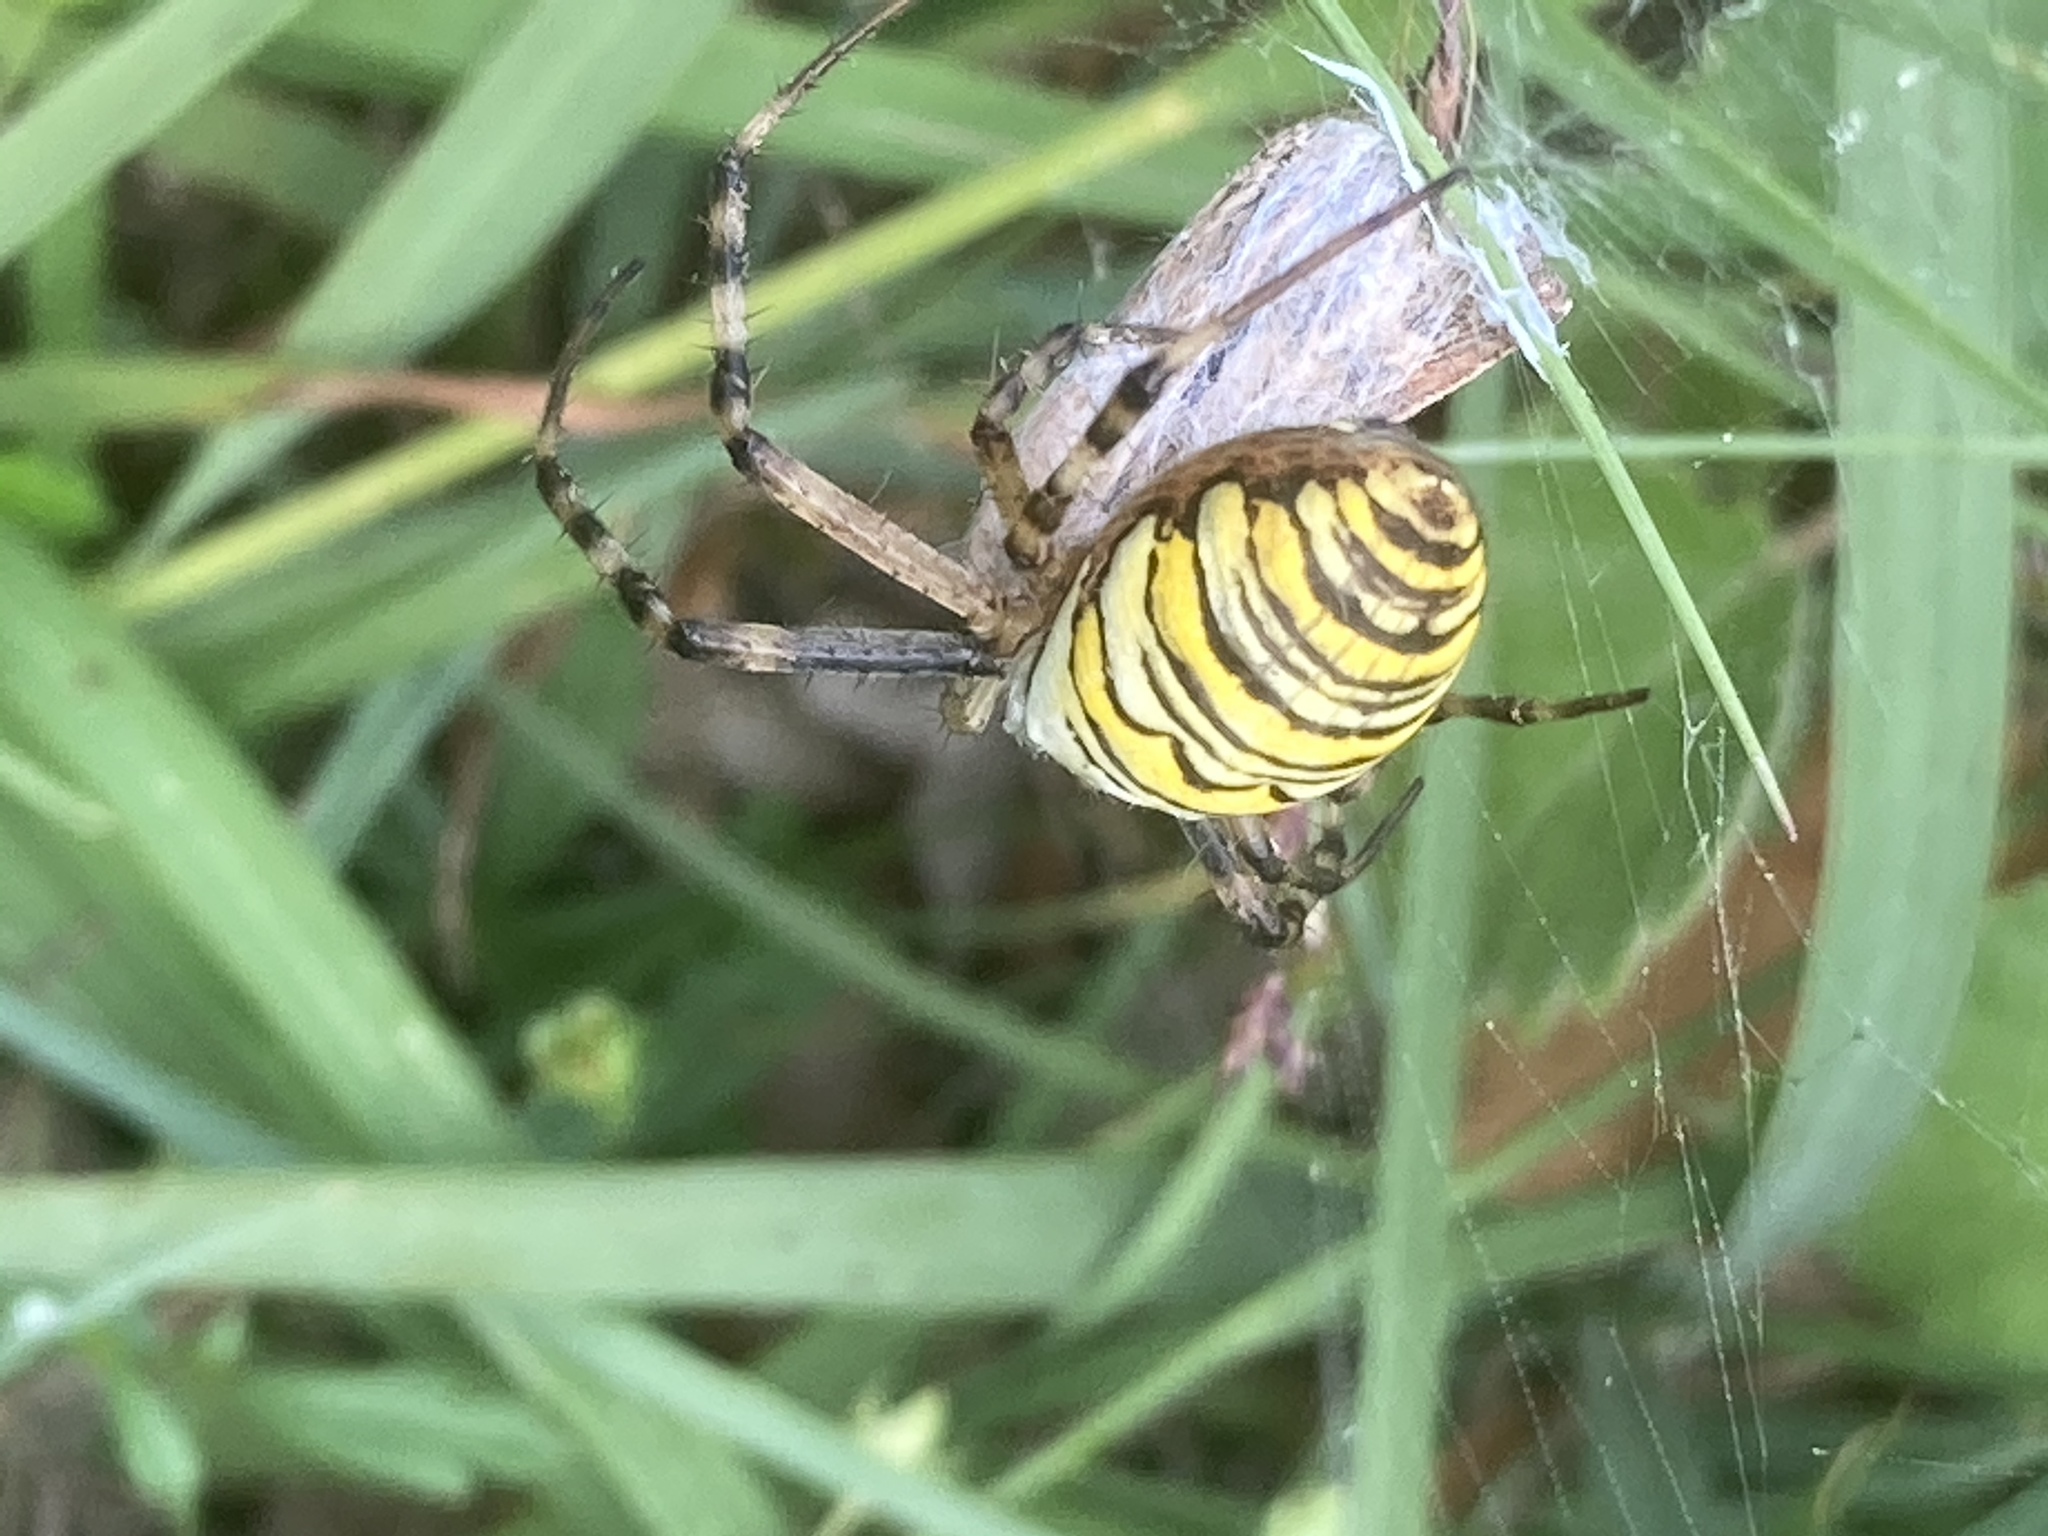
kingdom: Animalia
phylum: Arthropoda
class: Arachnida
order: Araneae
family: Araneidae
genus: Argiope
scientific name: Argiope bruennichi
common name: Wasp spider
